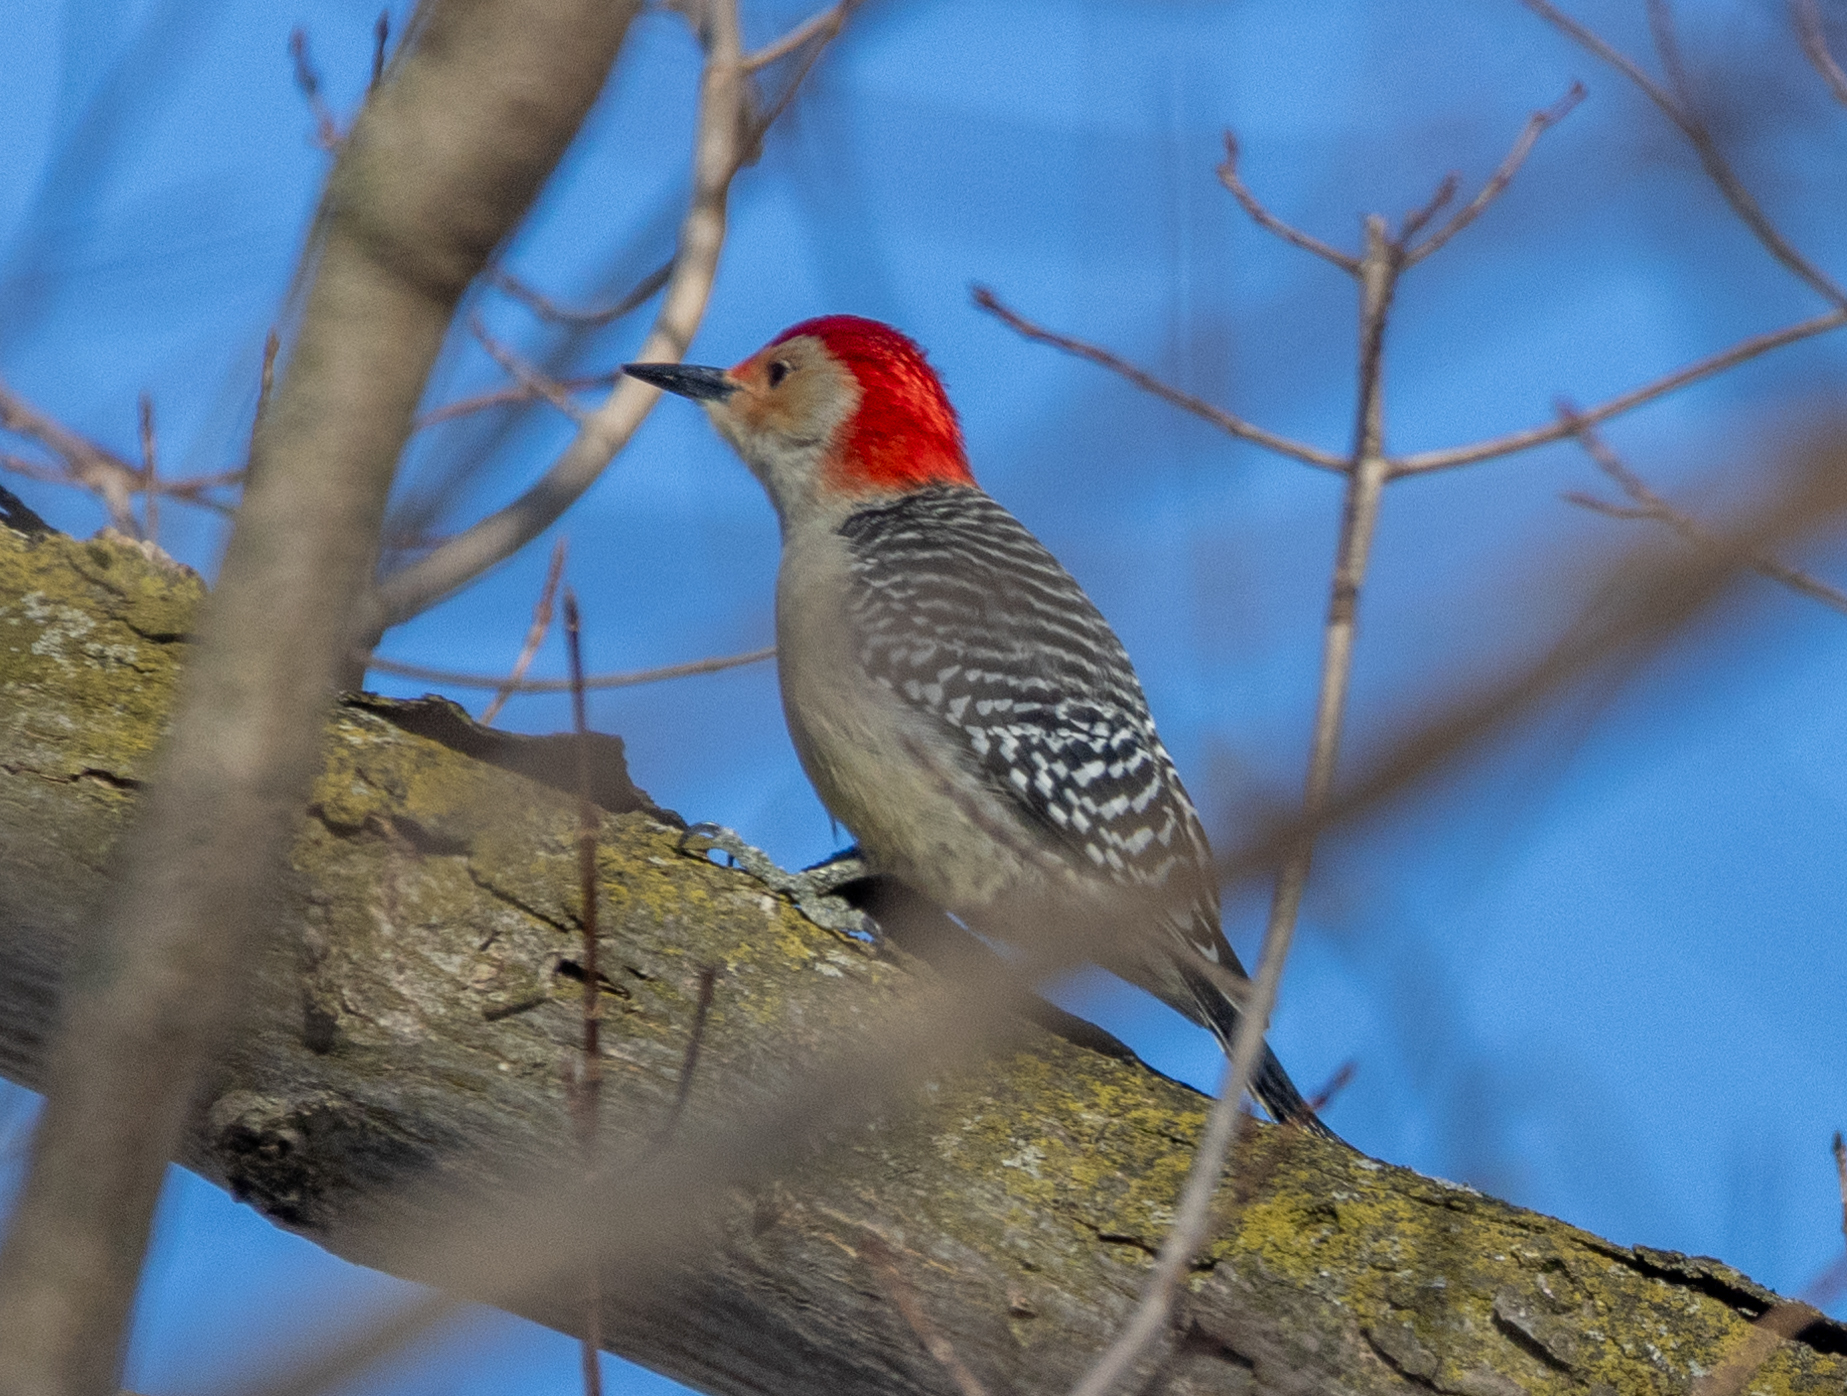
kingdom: Animalia
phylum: Chordata
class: Aves
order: Piciformes
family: Picidae
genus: Melanerpes
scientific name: Melanerpes carolinus
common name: Red-bellied woodpecker
